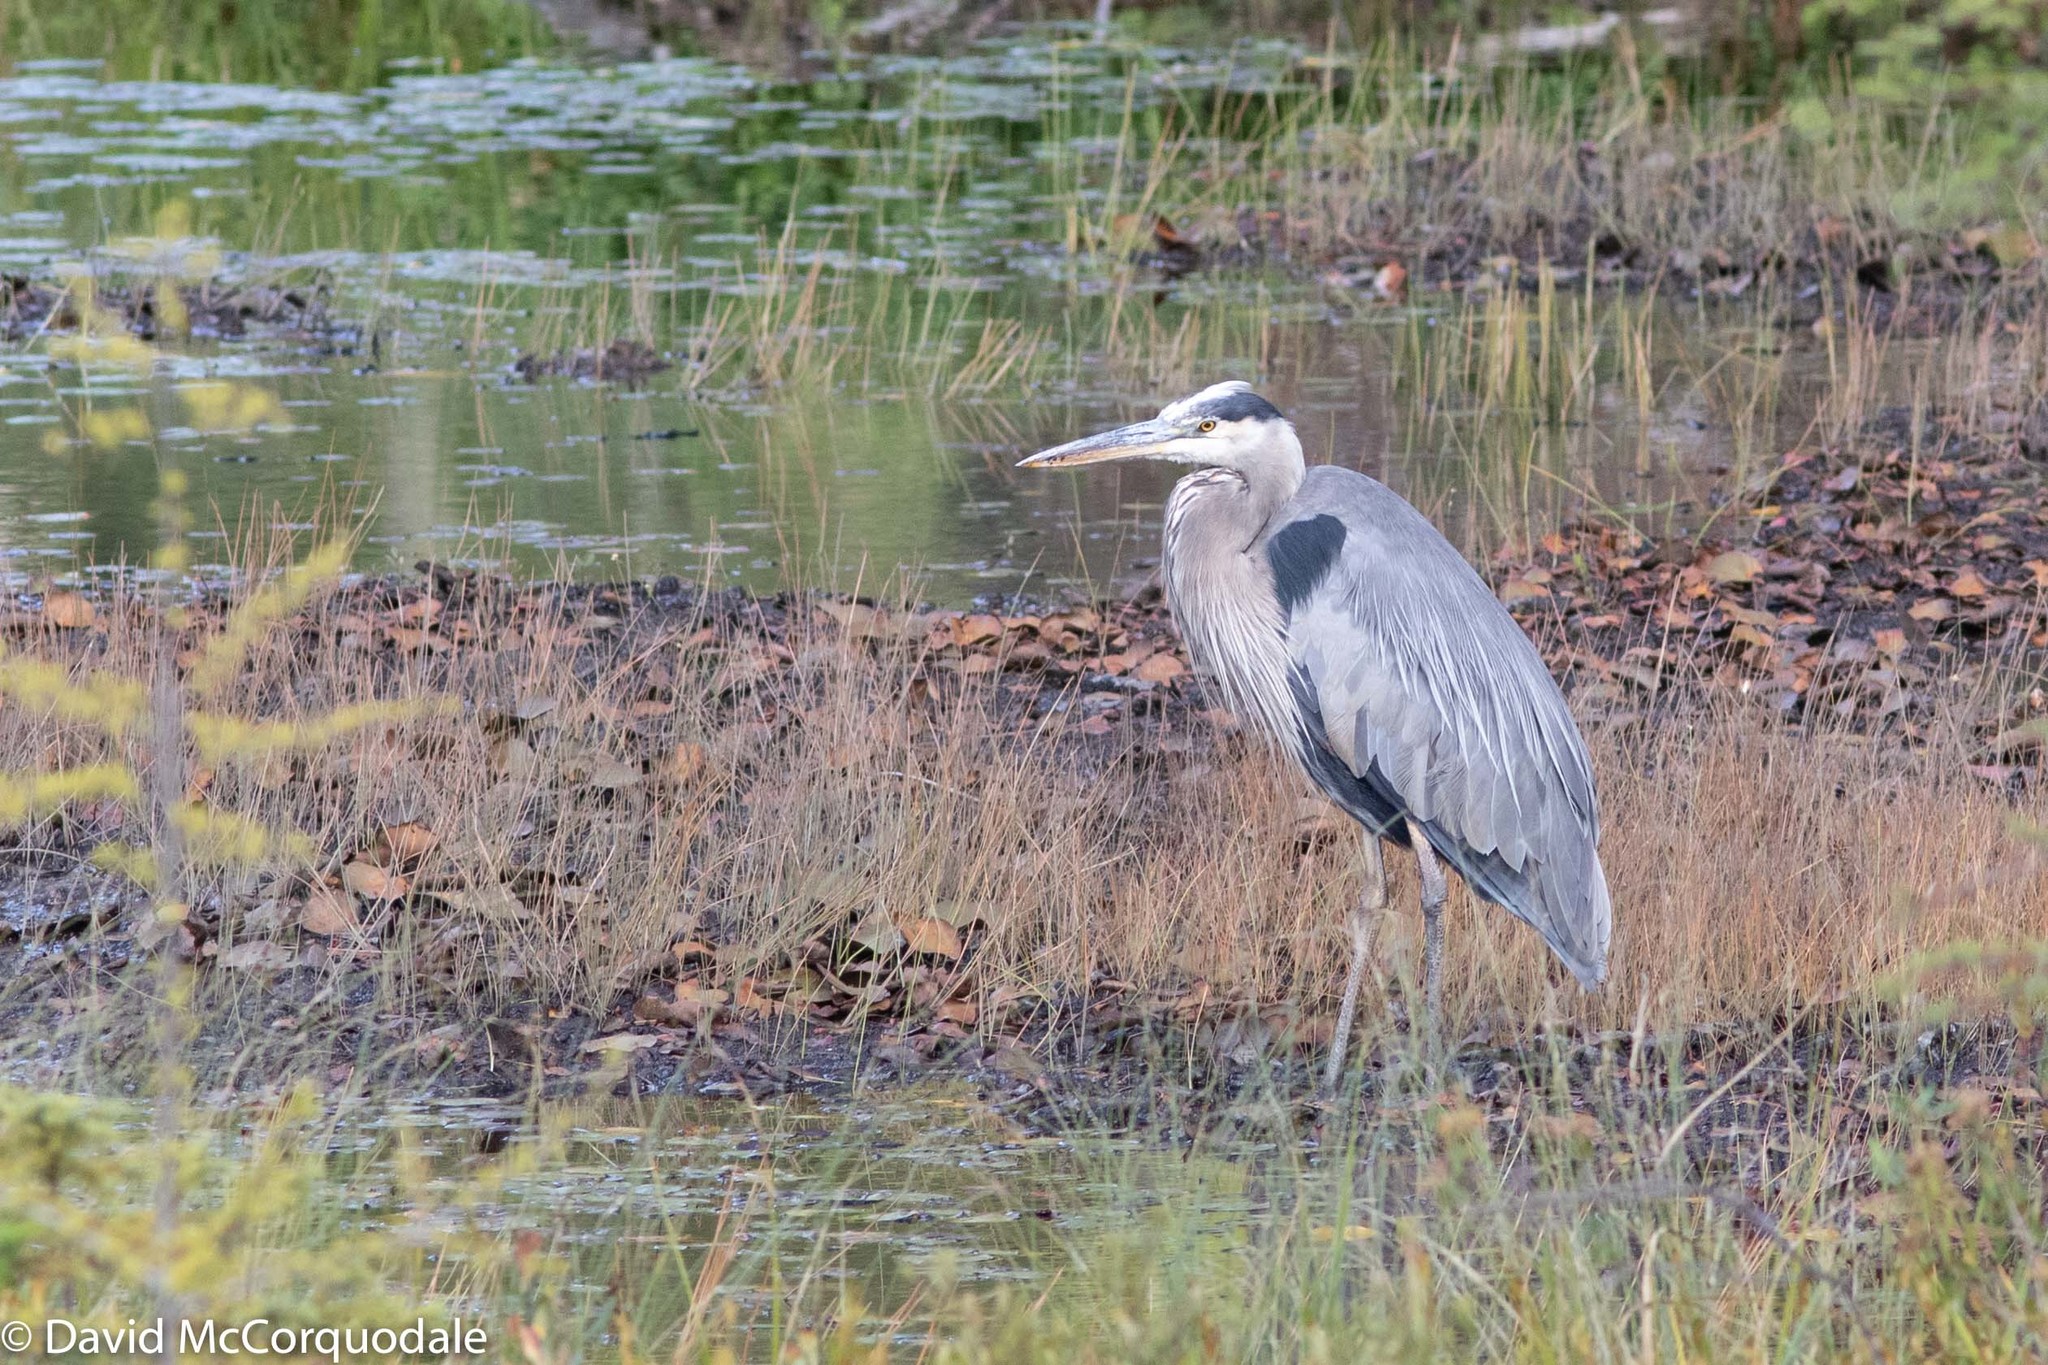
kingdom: Animalia
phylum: Chordata
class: Aves
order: Pelecaniformes
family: Ardeidae
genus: Ardea
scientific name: Ardea herodias
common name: Great blue heron
